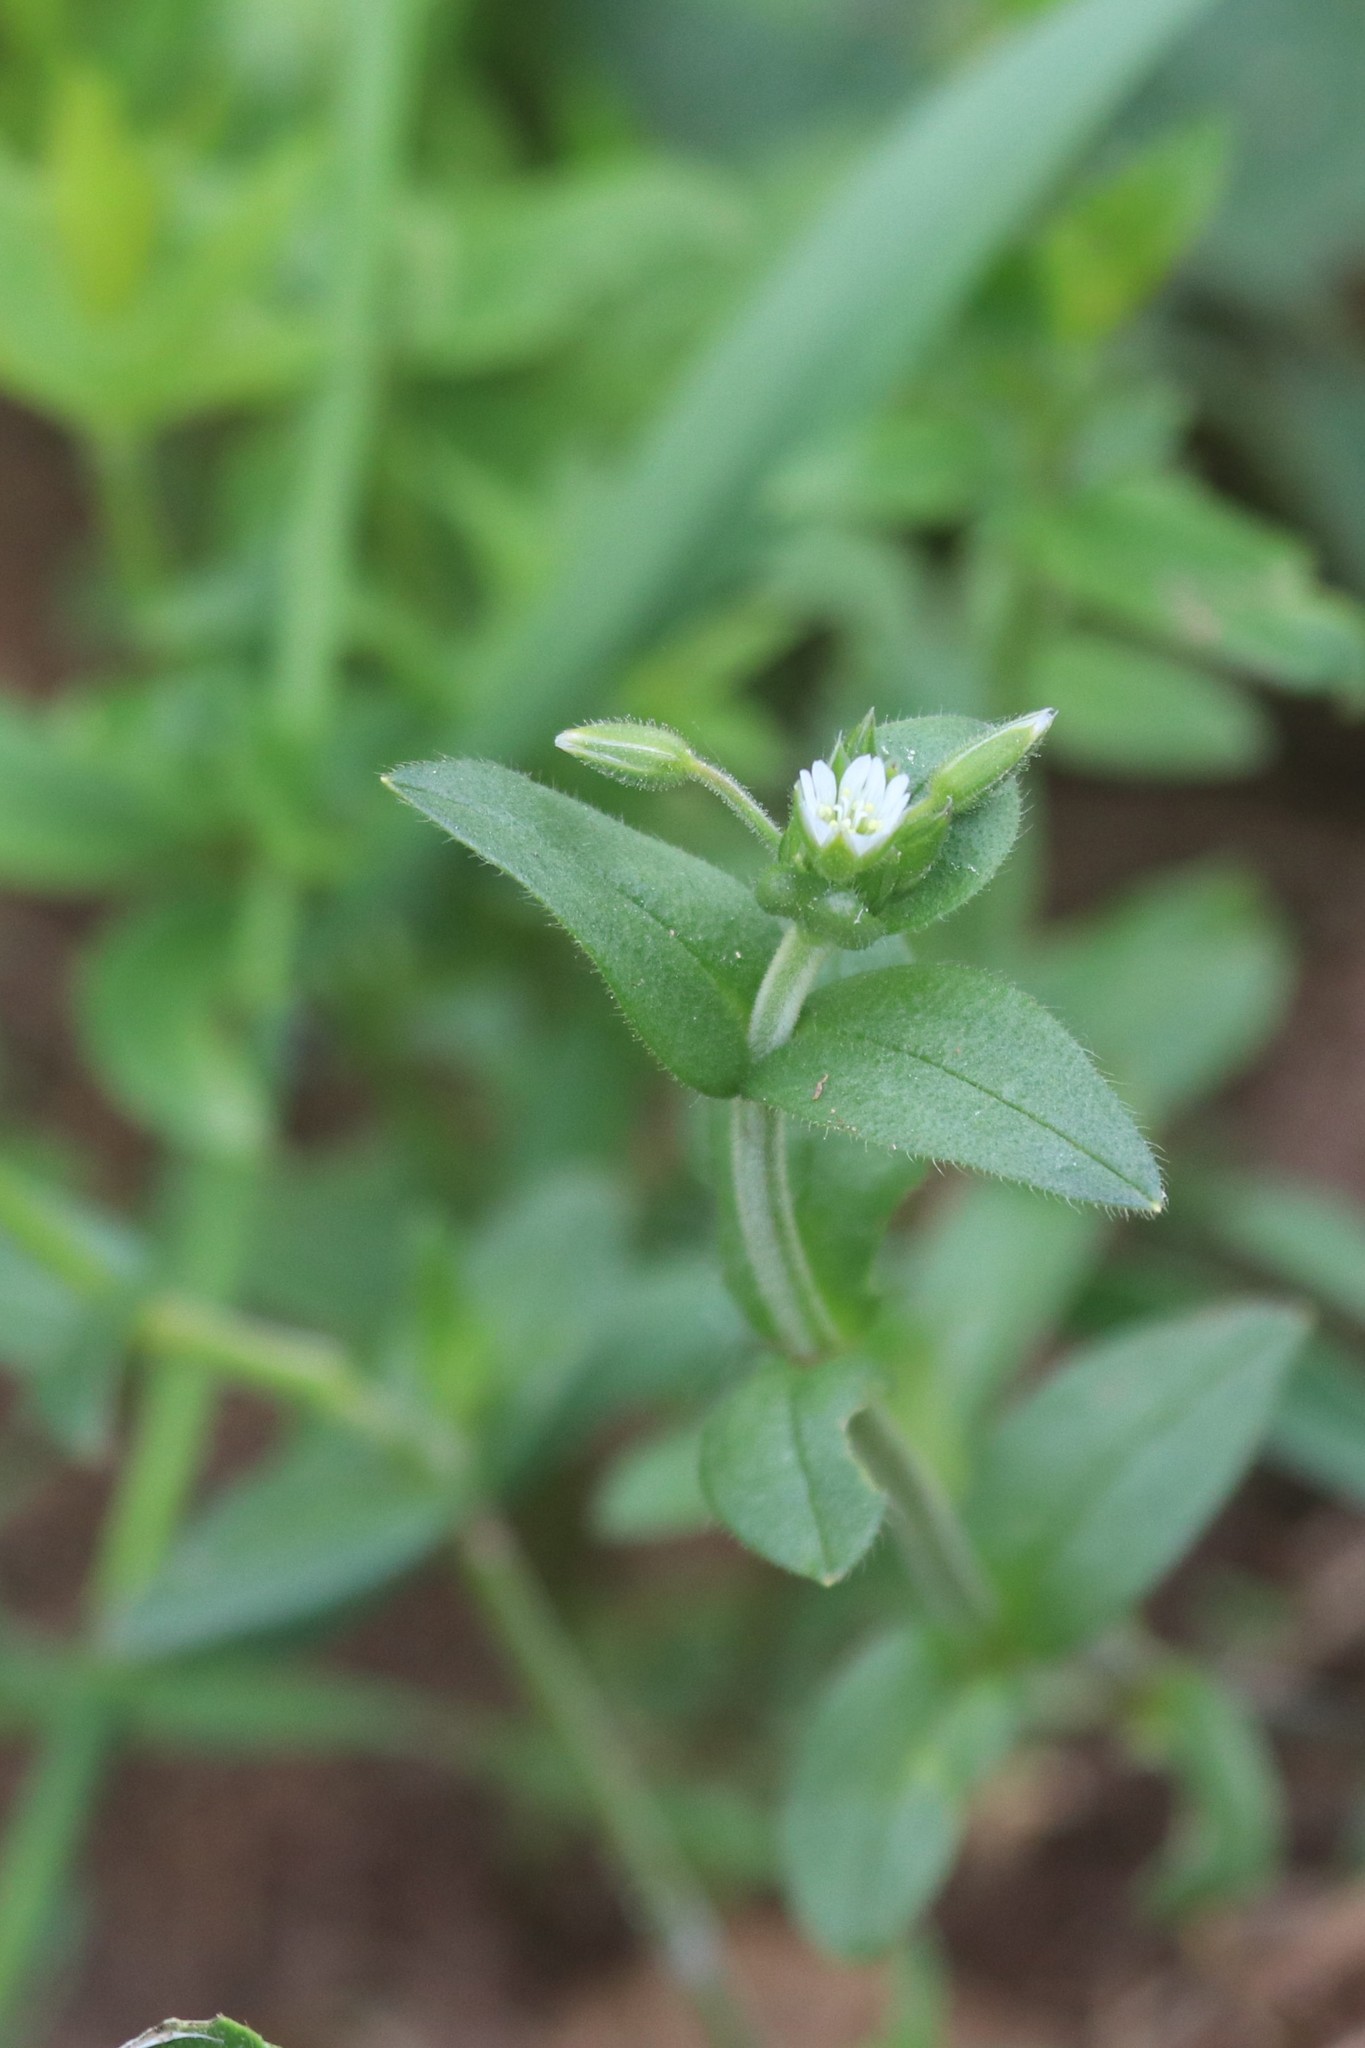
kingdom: Plantae
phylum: Tracheophyta
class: Magnoliopsida
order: Caryophyllales
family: Caryophyllaceae
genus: Cerastium
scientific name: Cerastium holosteoides
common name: Big chickweed
